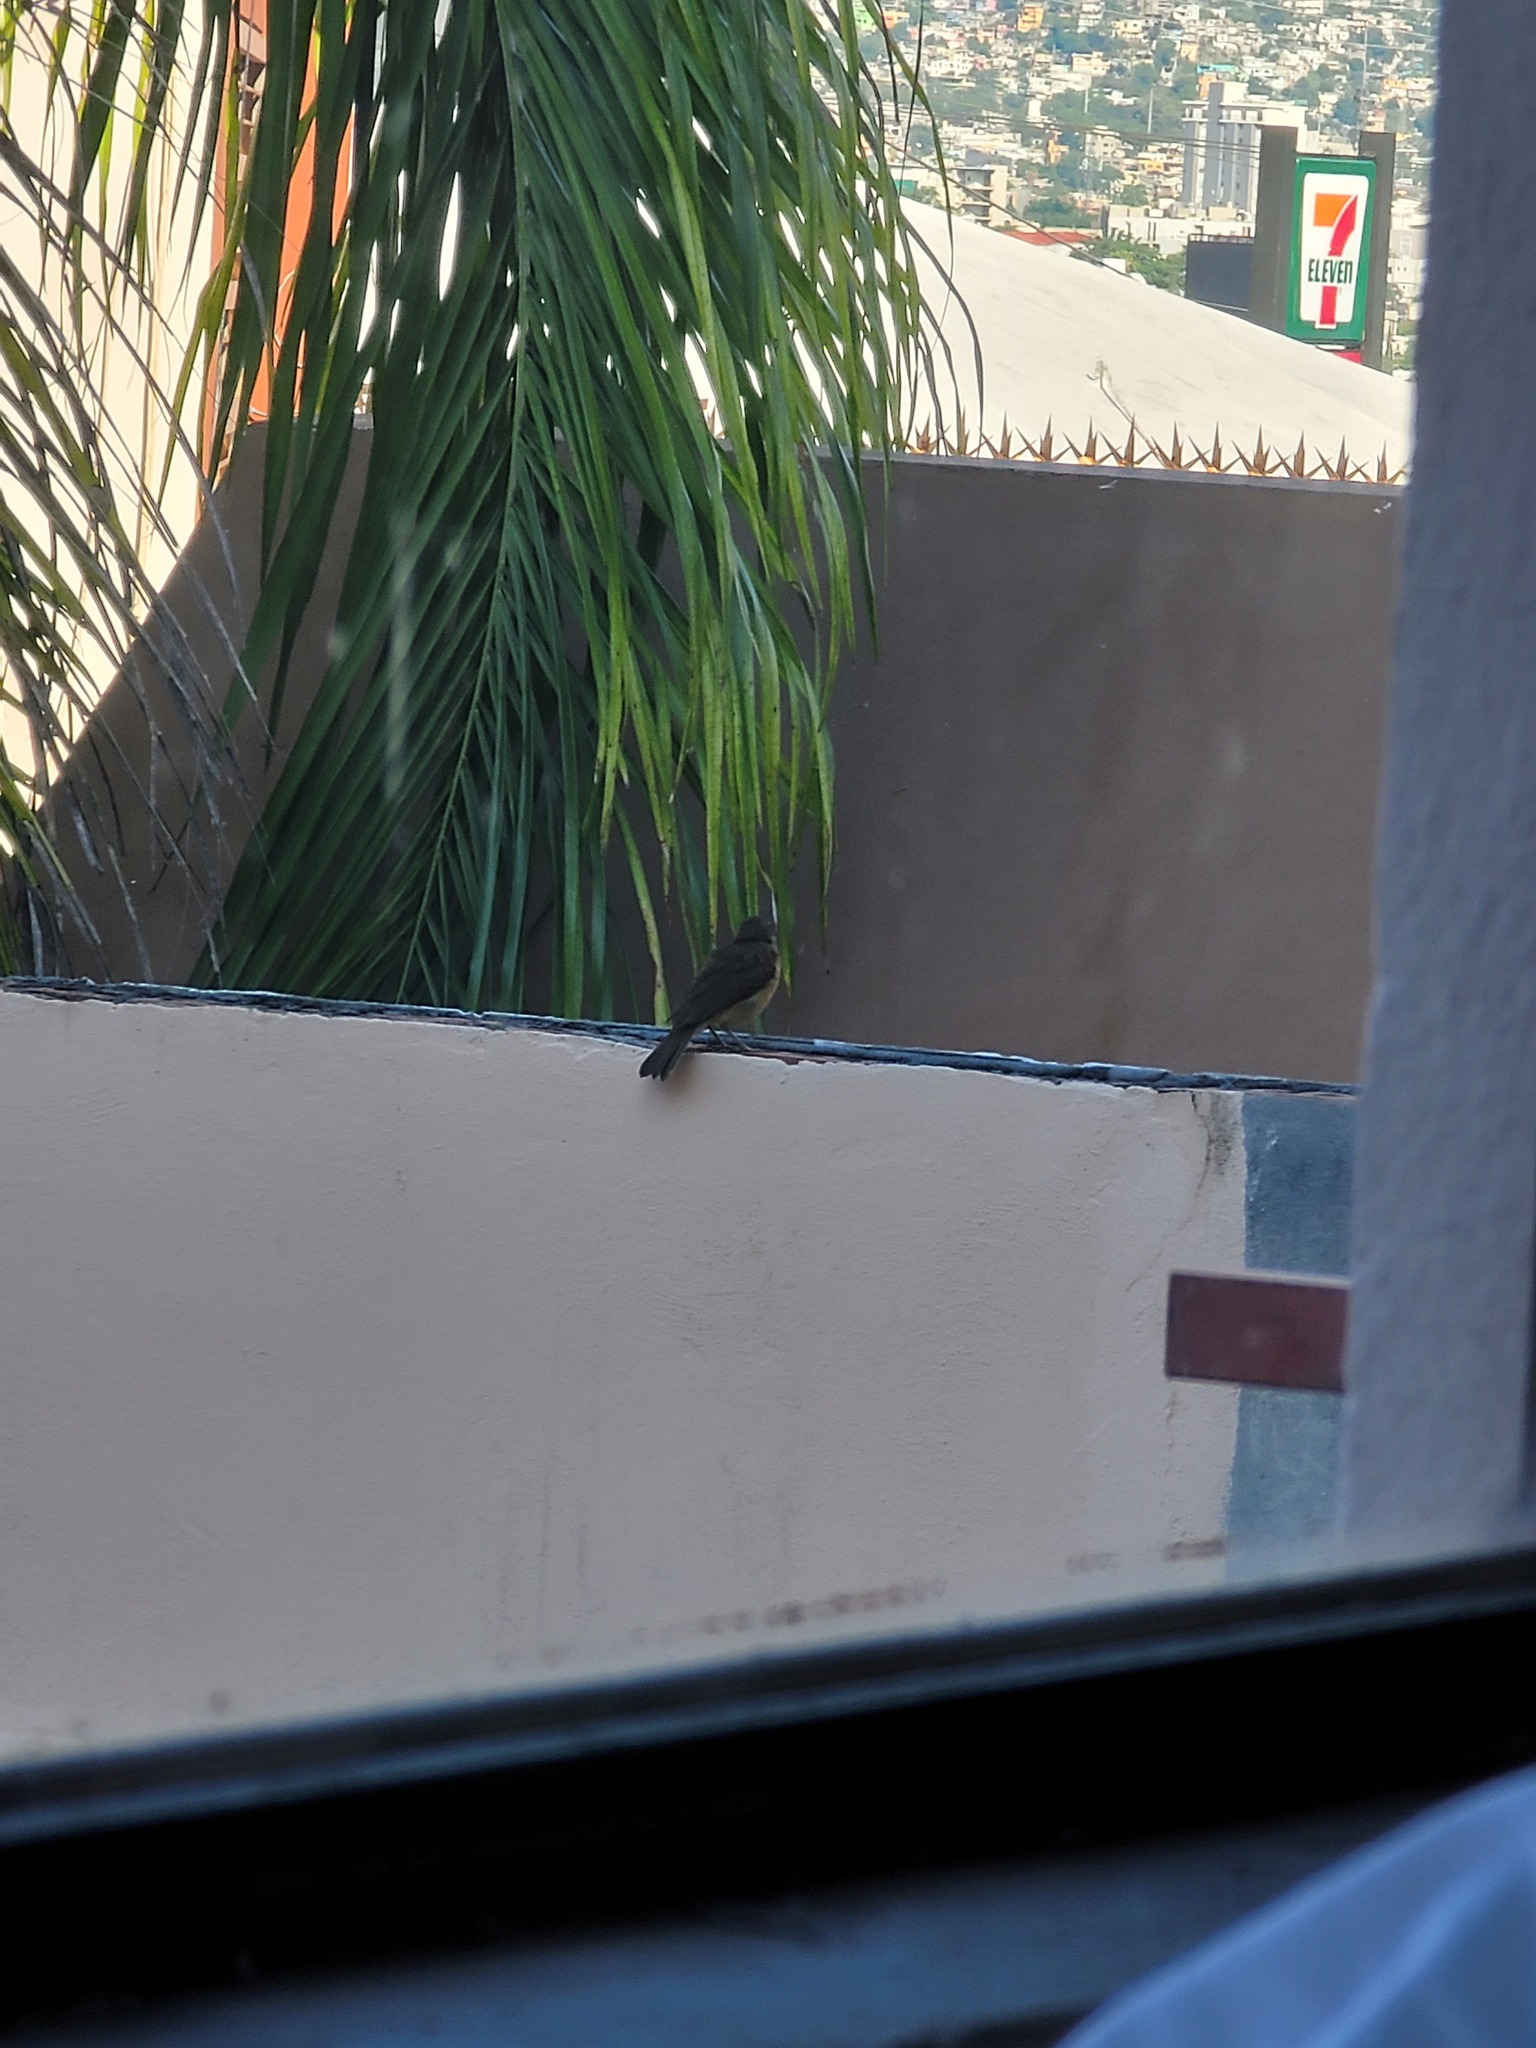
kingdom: Animalia
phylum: Chordata
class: Aves
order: Passeriformes
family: Turdidae
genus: Turdus
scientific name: Turdus grayi
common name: Clay-colored thrush
